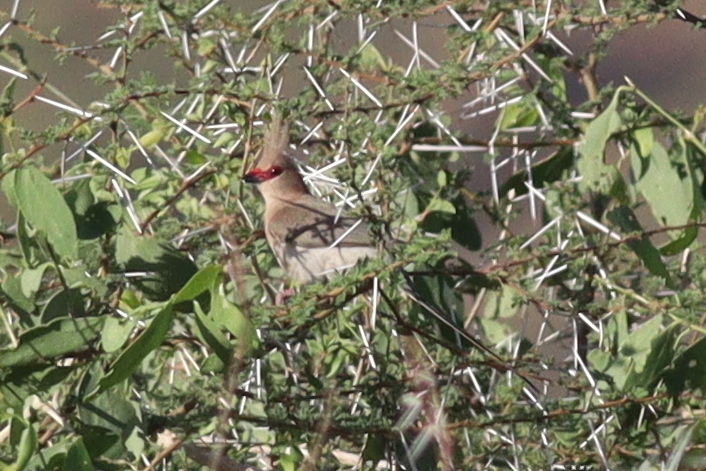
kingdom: Animalia
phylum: Chordata
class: Aves
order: Coliiformes
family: Coliidae
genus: Urocolius
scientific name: Urocolius macrourus
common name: Blue-naped mousebird
